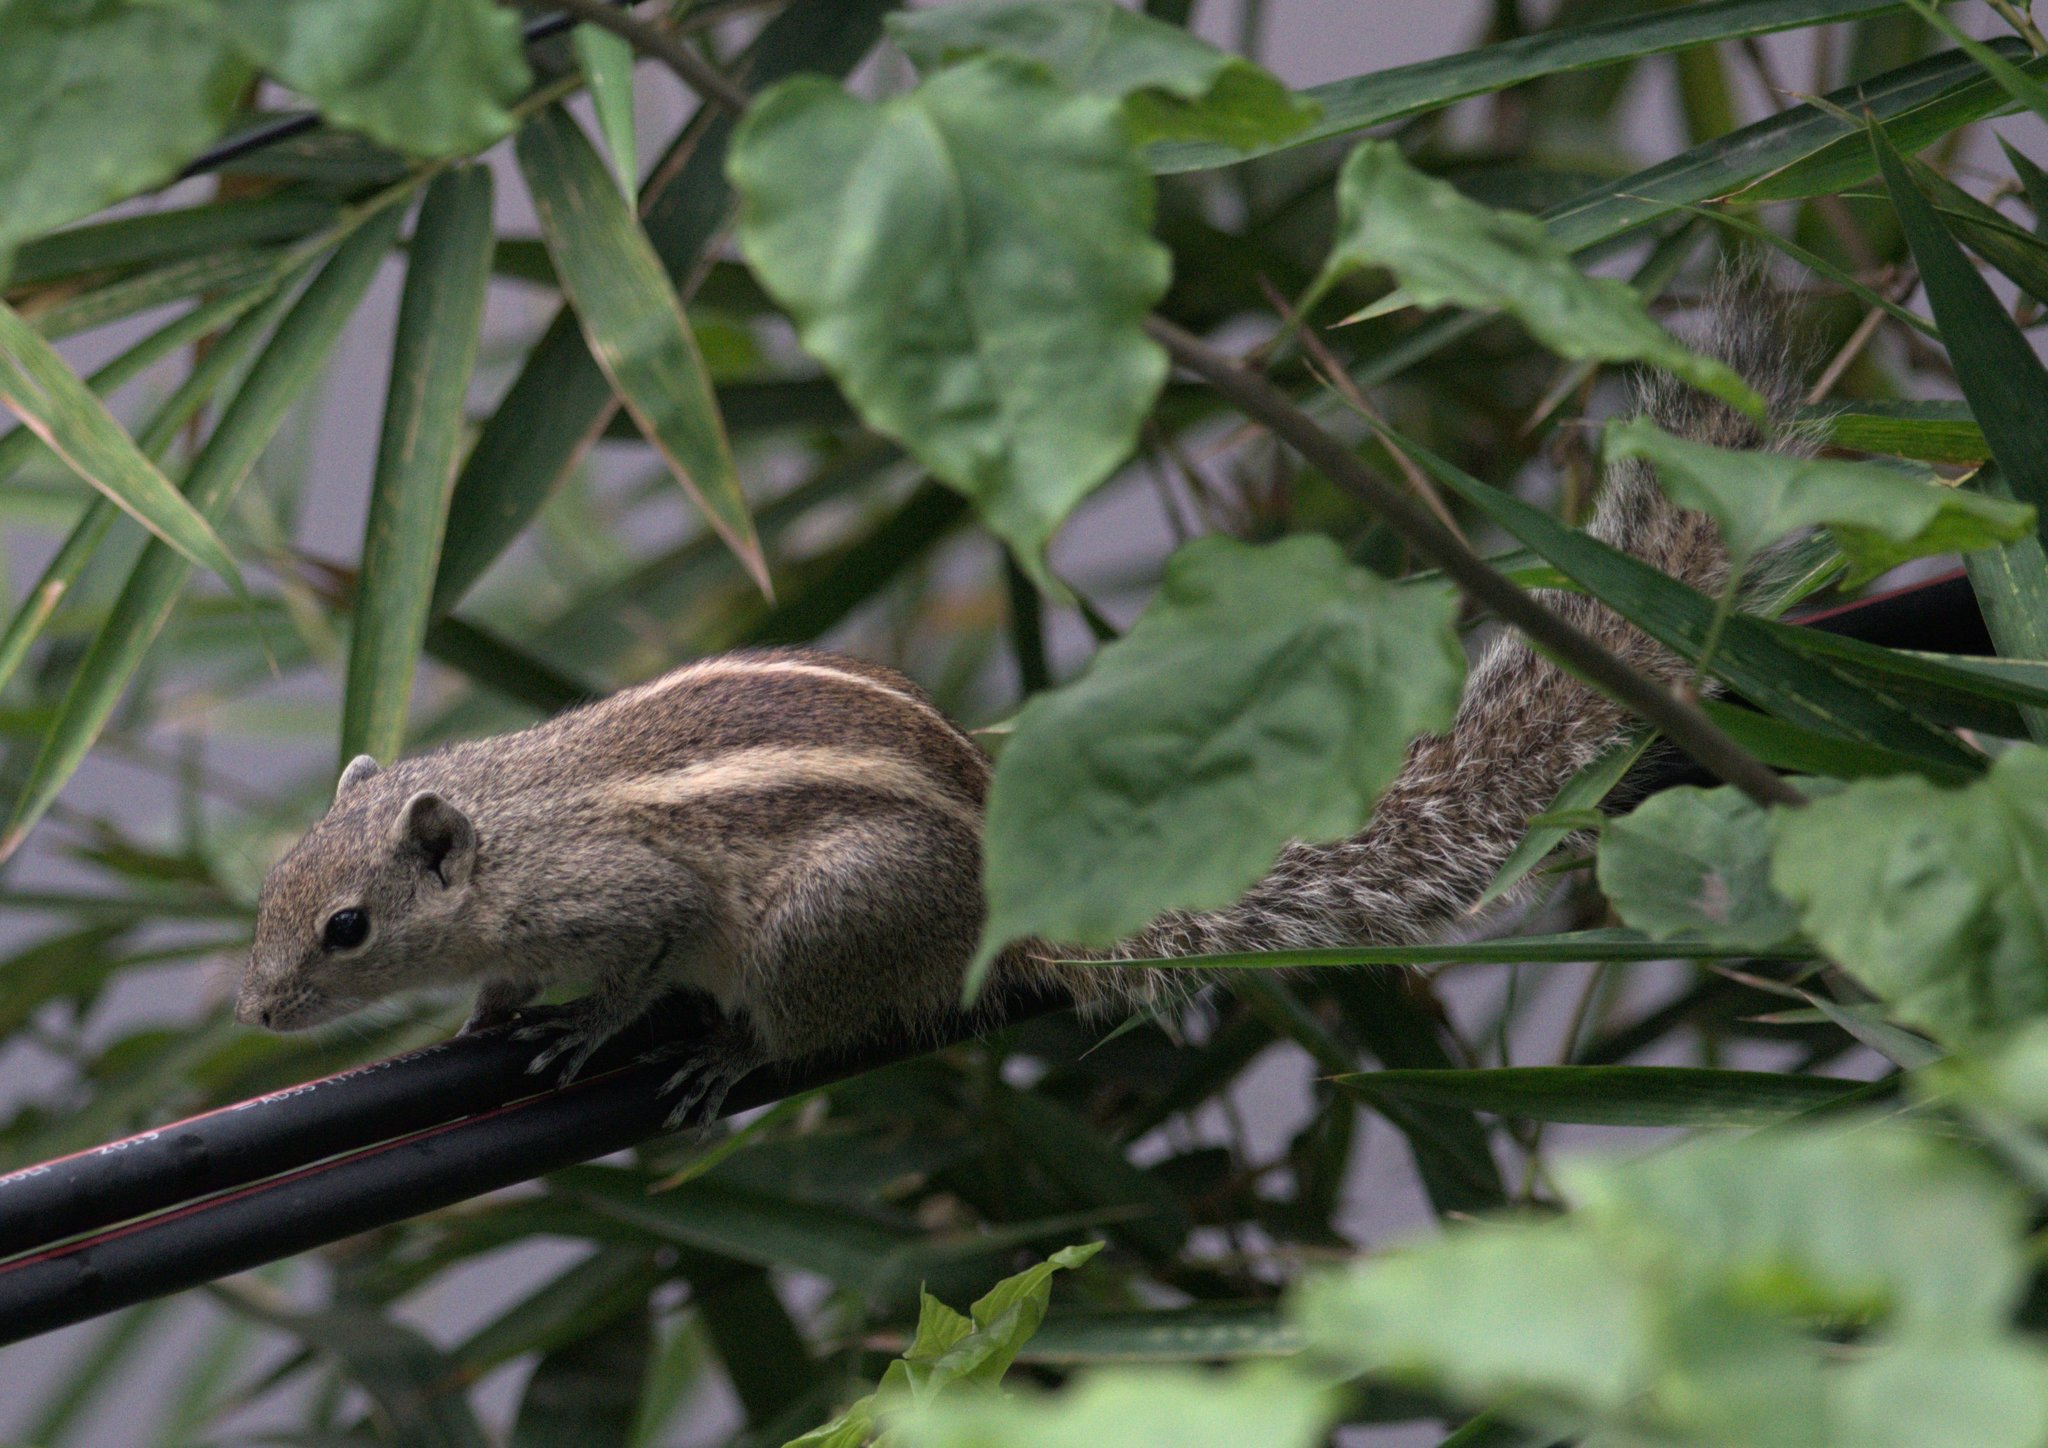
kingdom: Animalia
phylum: Chordata
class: Mammalia
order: Rodentia
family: Sciuridae
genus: Funambulus
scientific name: Funambulus palmarum
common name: Indian palm squirrel
